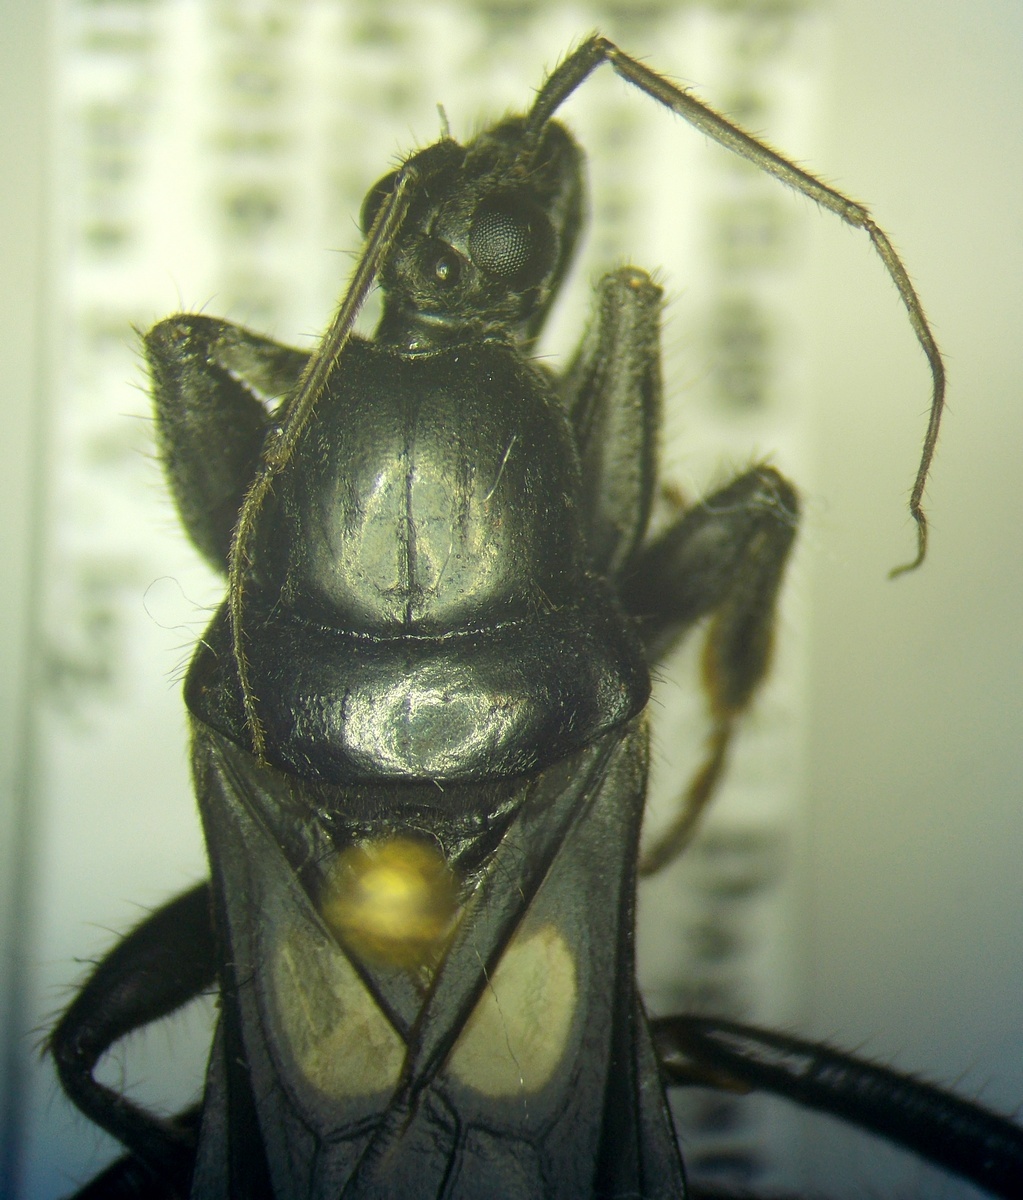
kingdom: Animalia
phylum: Arthropoda
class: Insecta
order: Hemiptera
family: Reduviidae
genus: Ectomocoris
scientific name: Ectomocoris caucasicus
